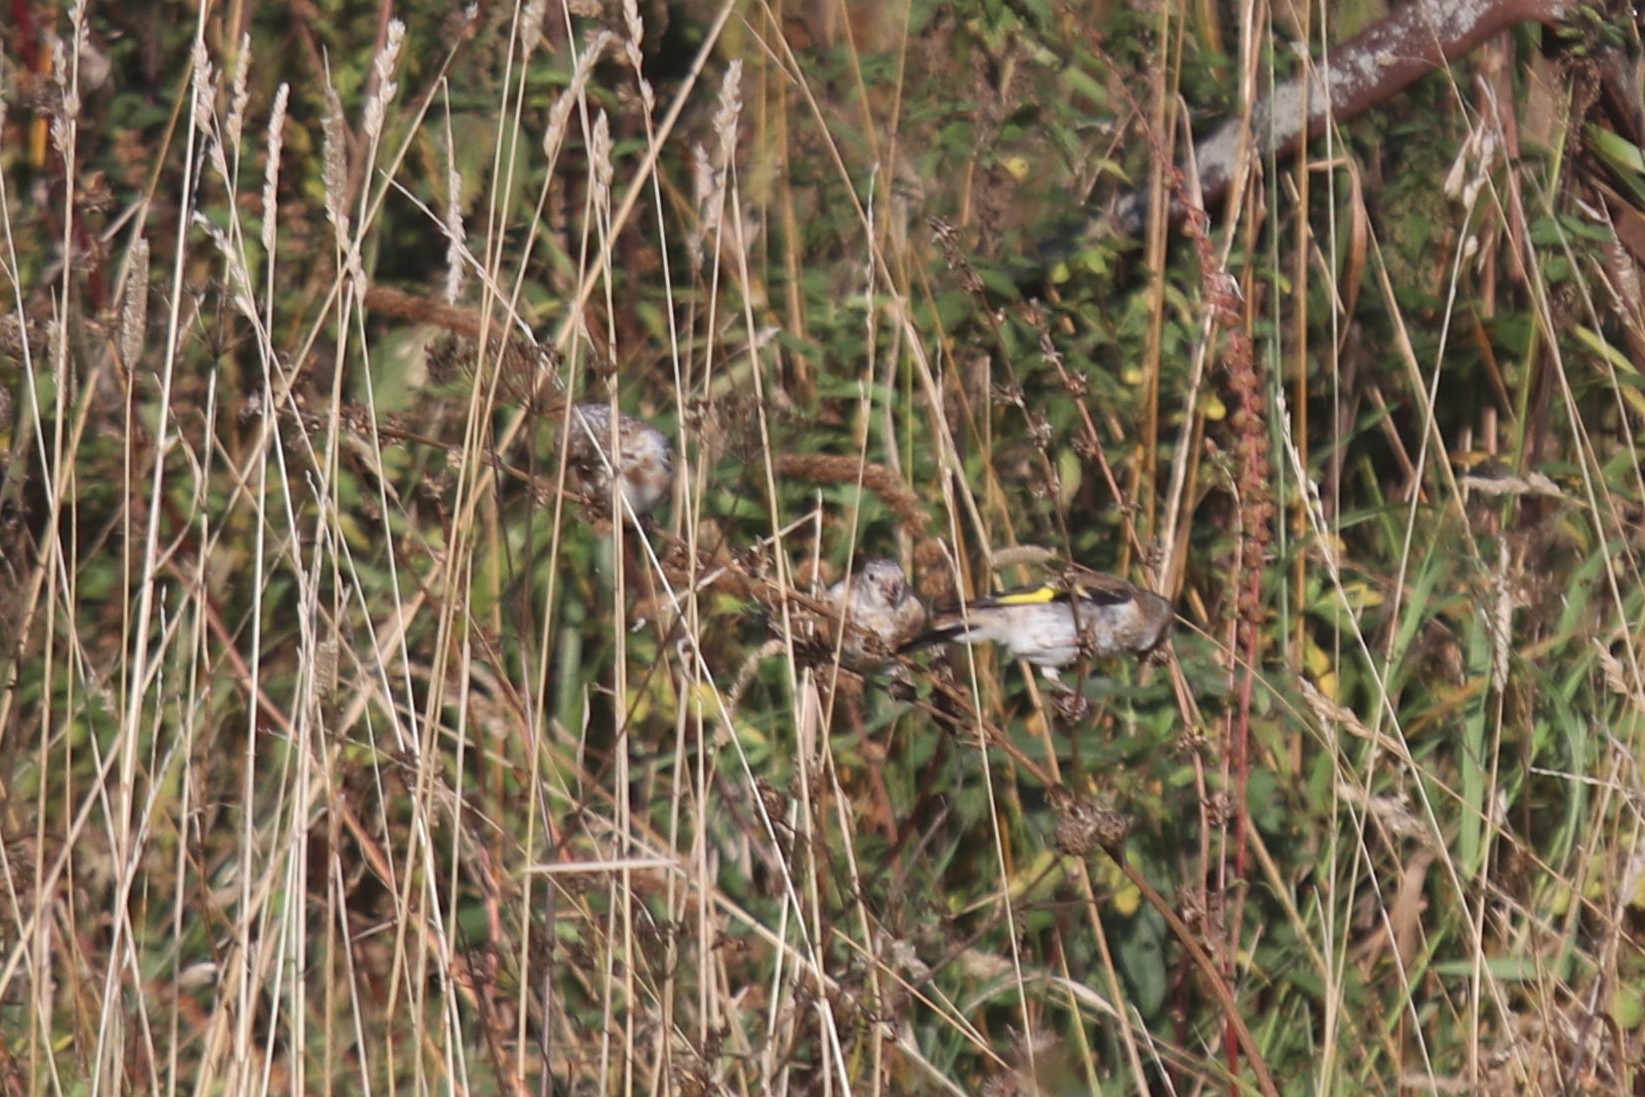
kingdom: Animalia
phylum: Chordata
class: Aves
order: Passeriformes
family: Fringillidae
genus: Carduelis
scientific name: Carduelis carduelis
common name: European goldfinch
